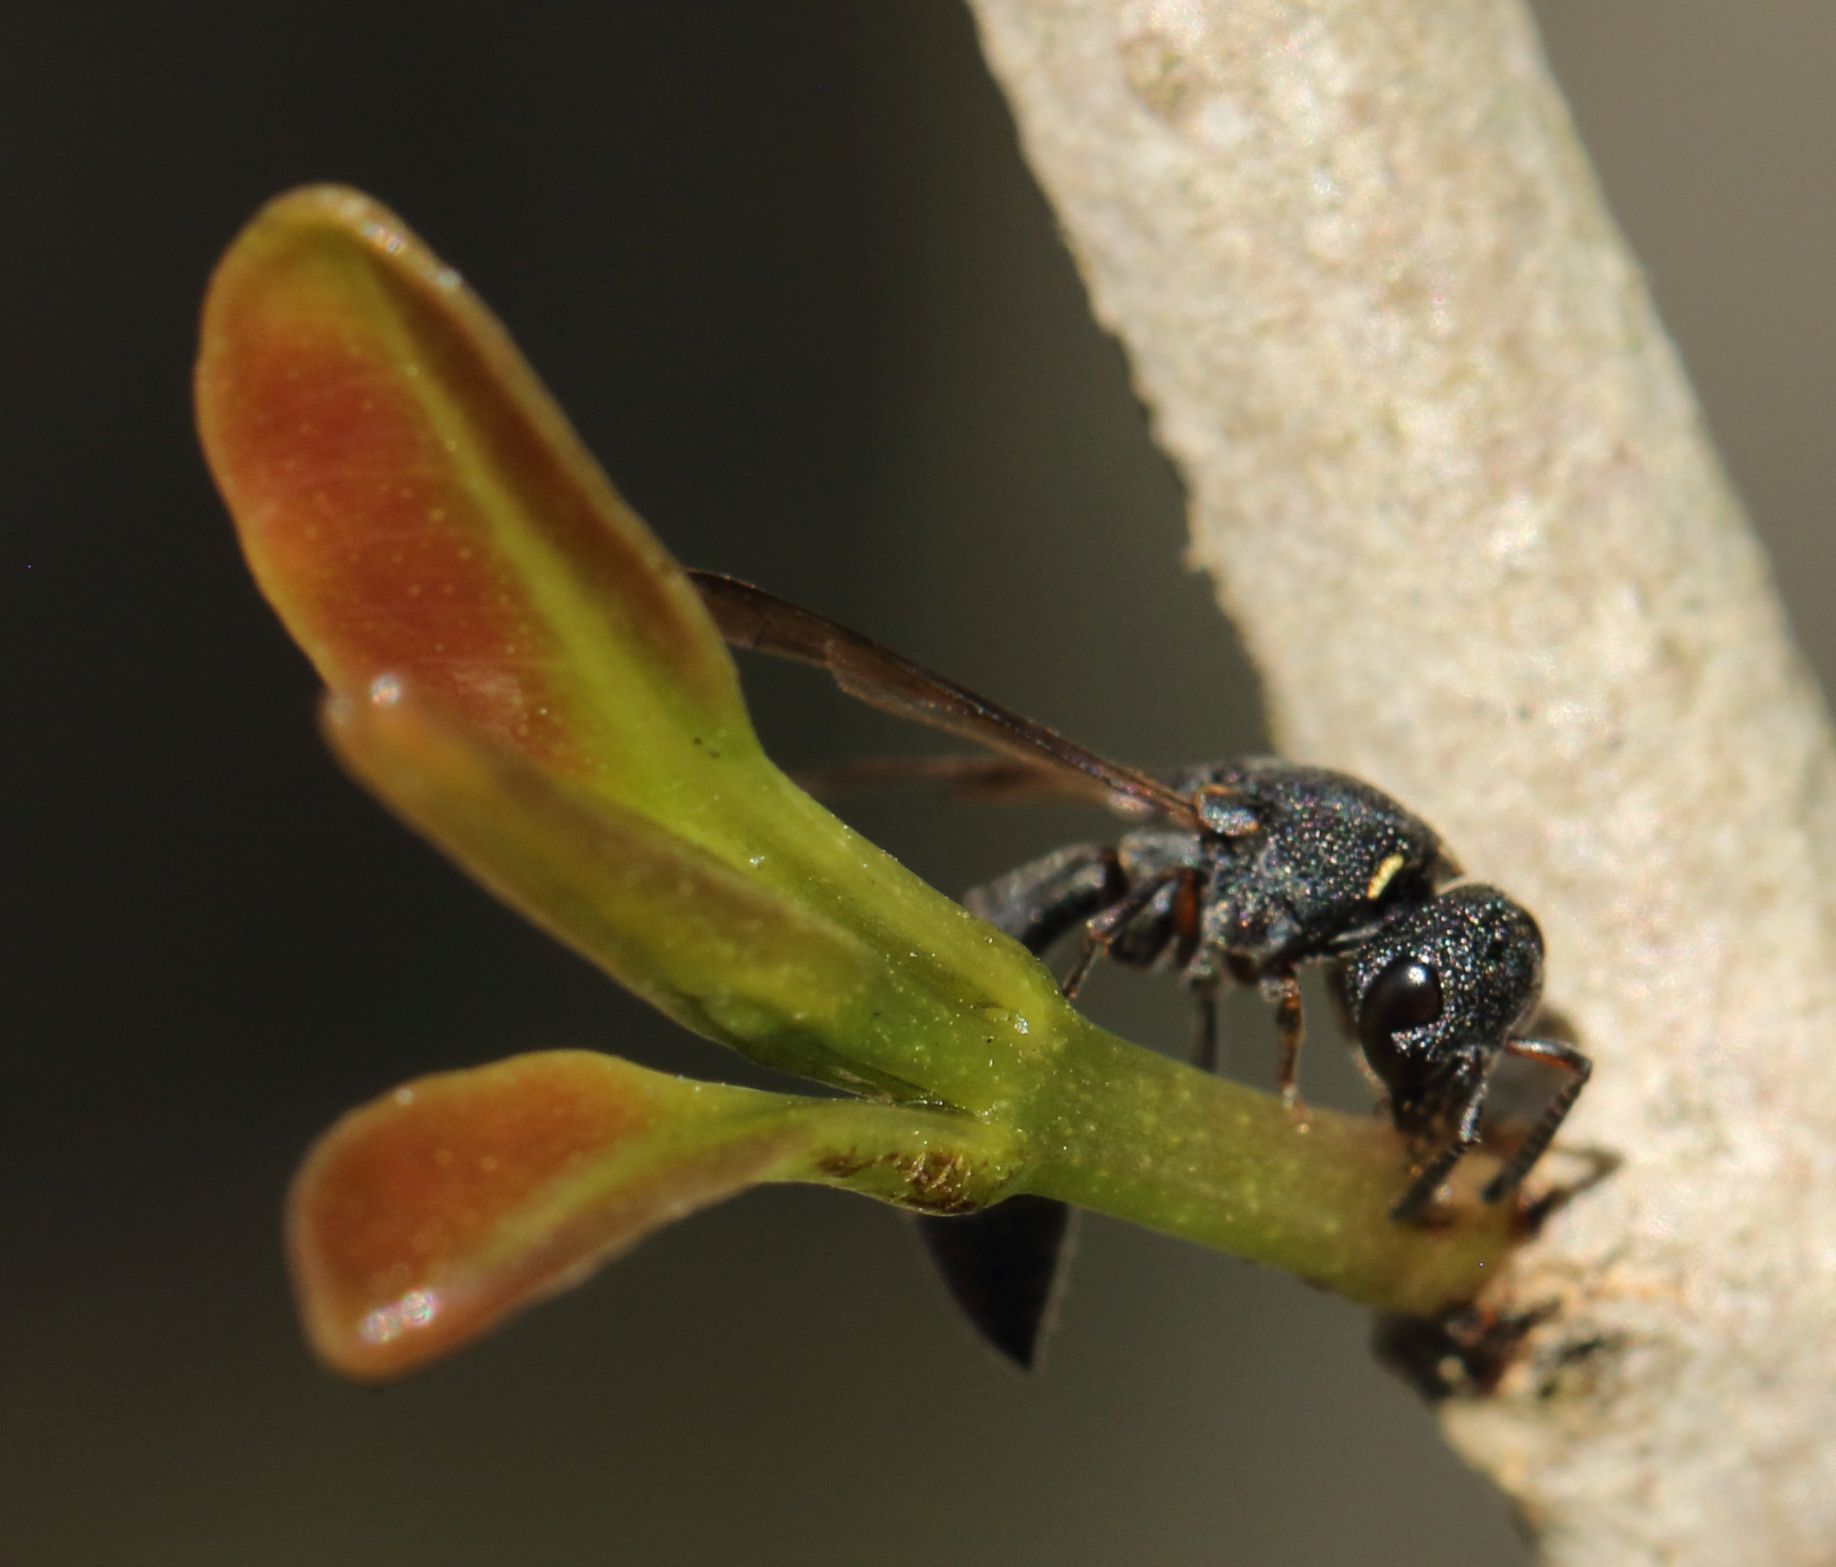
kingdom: Animalia
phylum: Arthropoda
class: Insecta
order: Hymenoptera
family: Eumenidae
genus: Cyrtolabulus
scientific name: Cyrtolabulus
